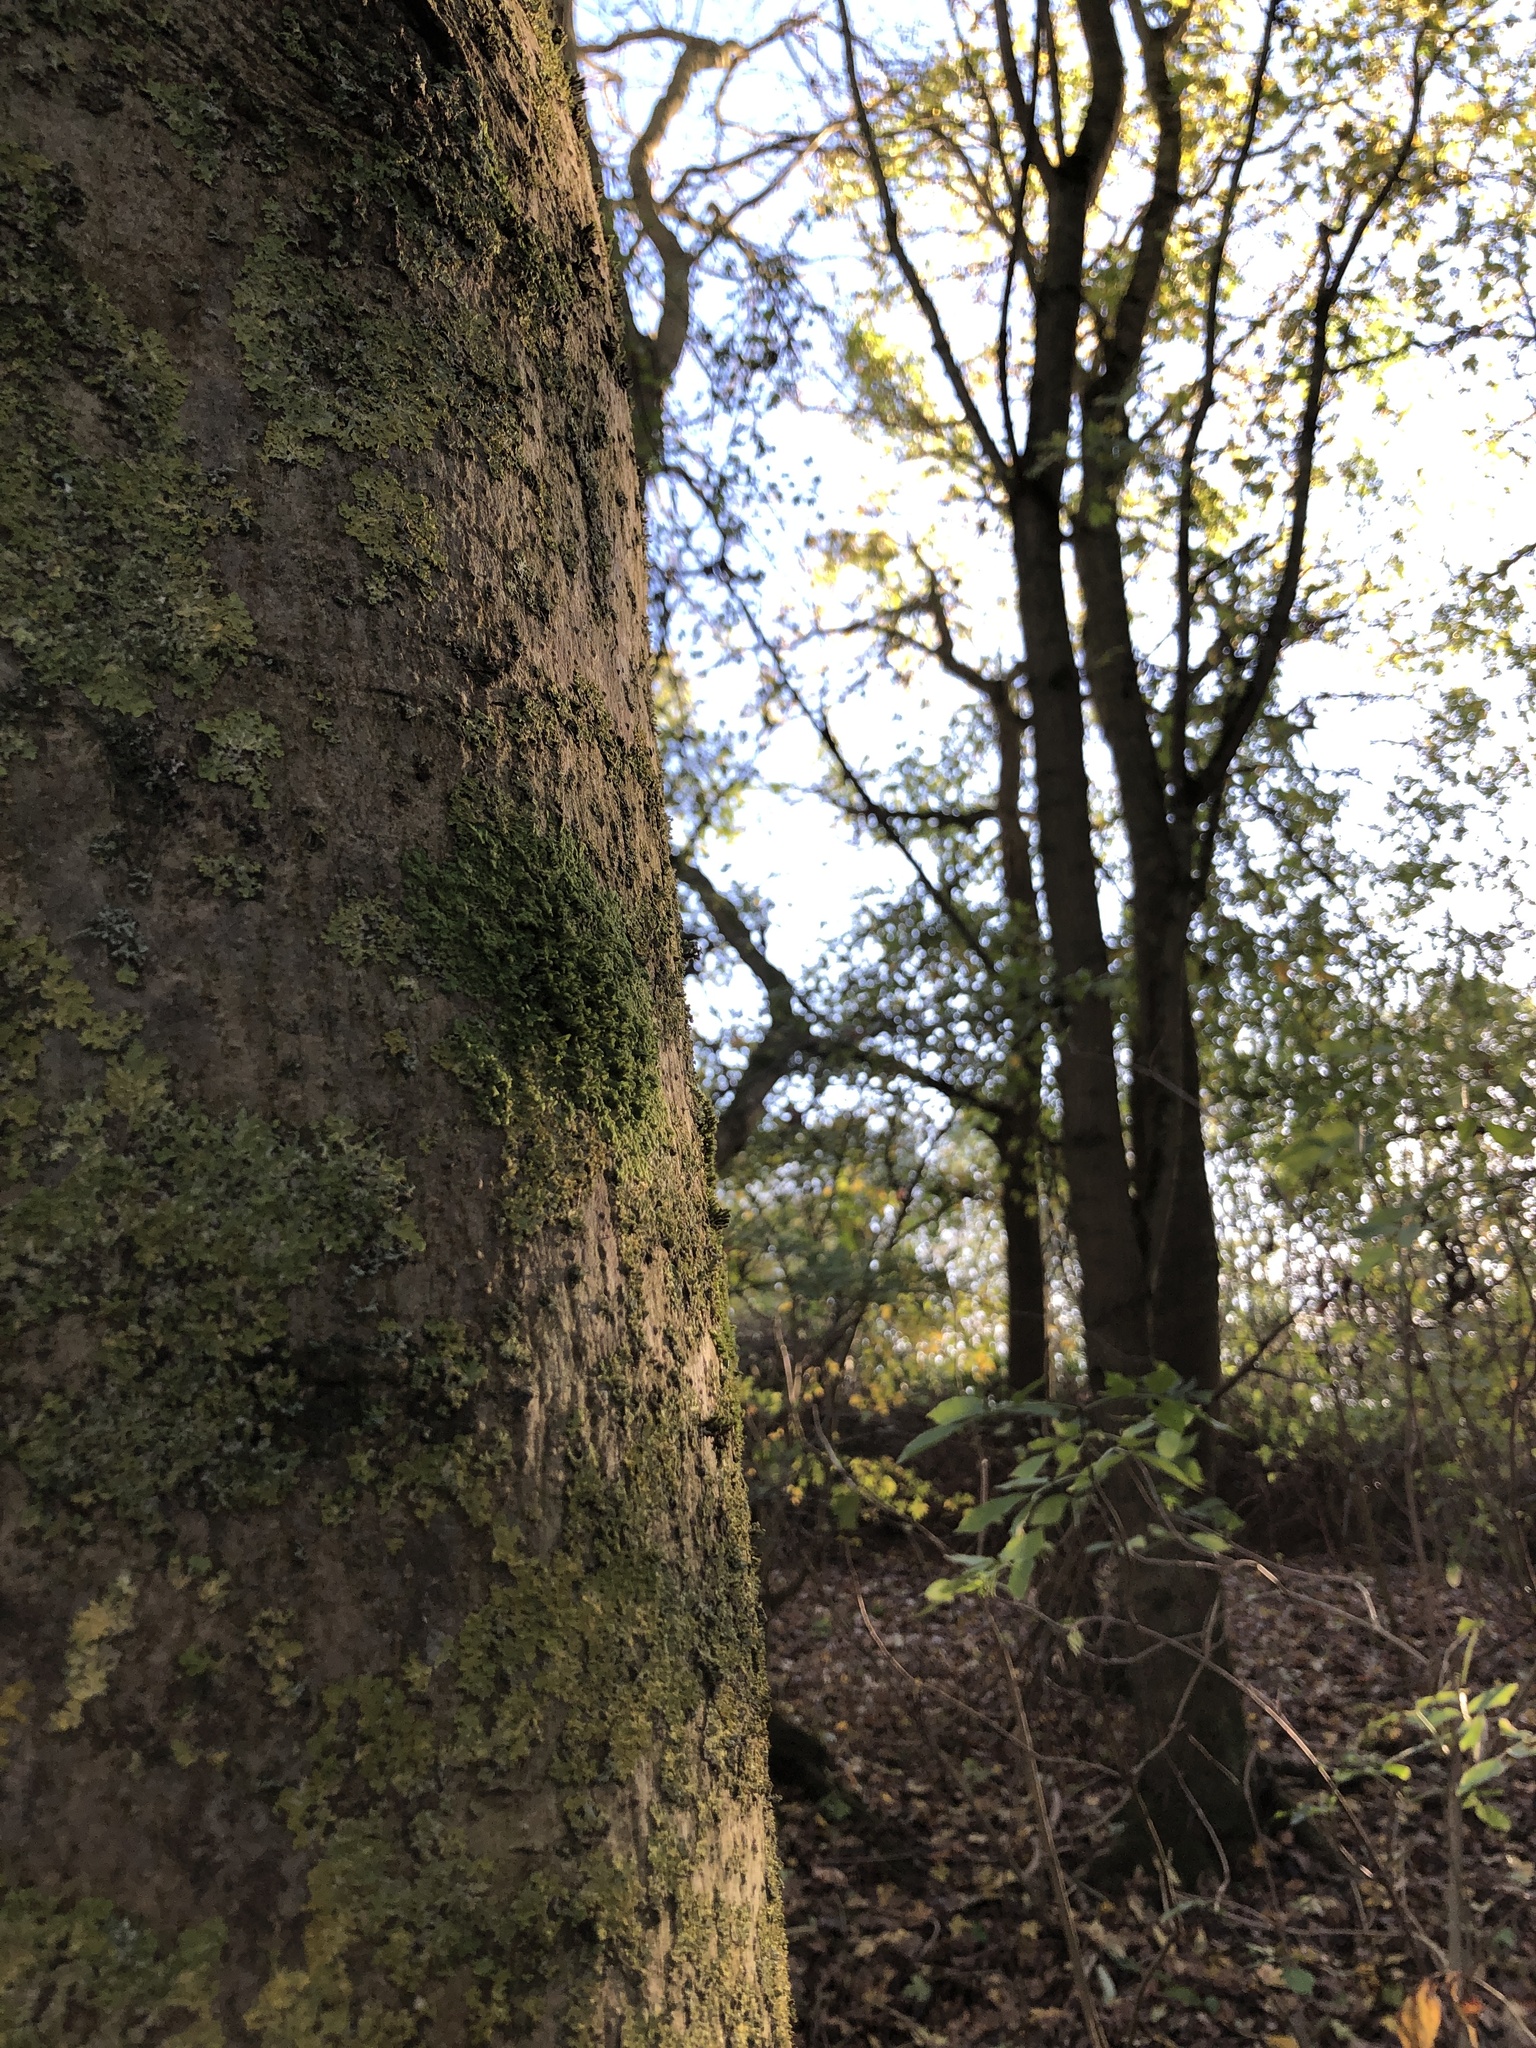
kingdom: Plantae
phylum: Marchantiophyta
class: Jungermanniopsida
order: Porellales
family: Radulaceae
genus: Radula
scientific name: Radula complanata
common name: Flat-leaved scalewort
